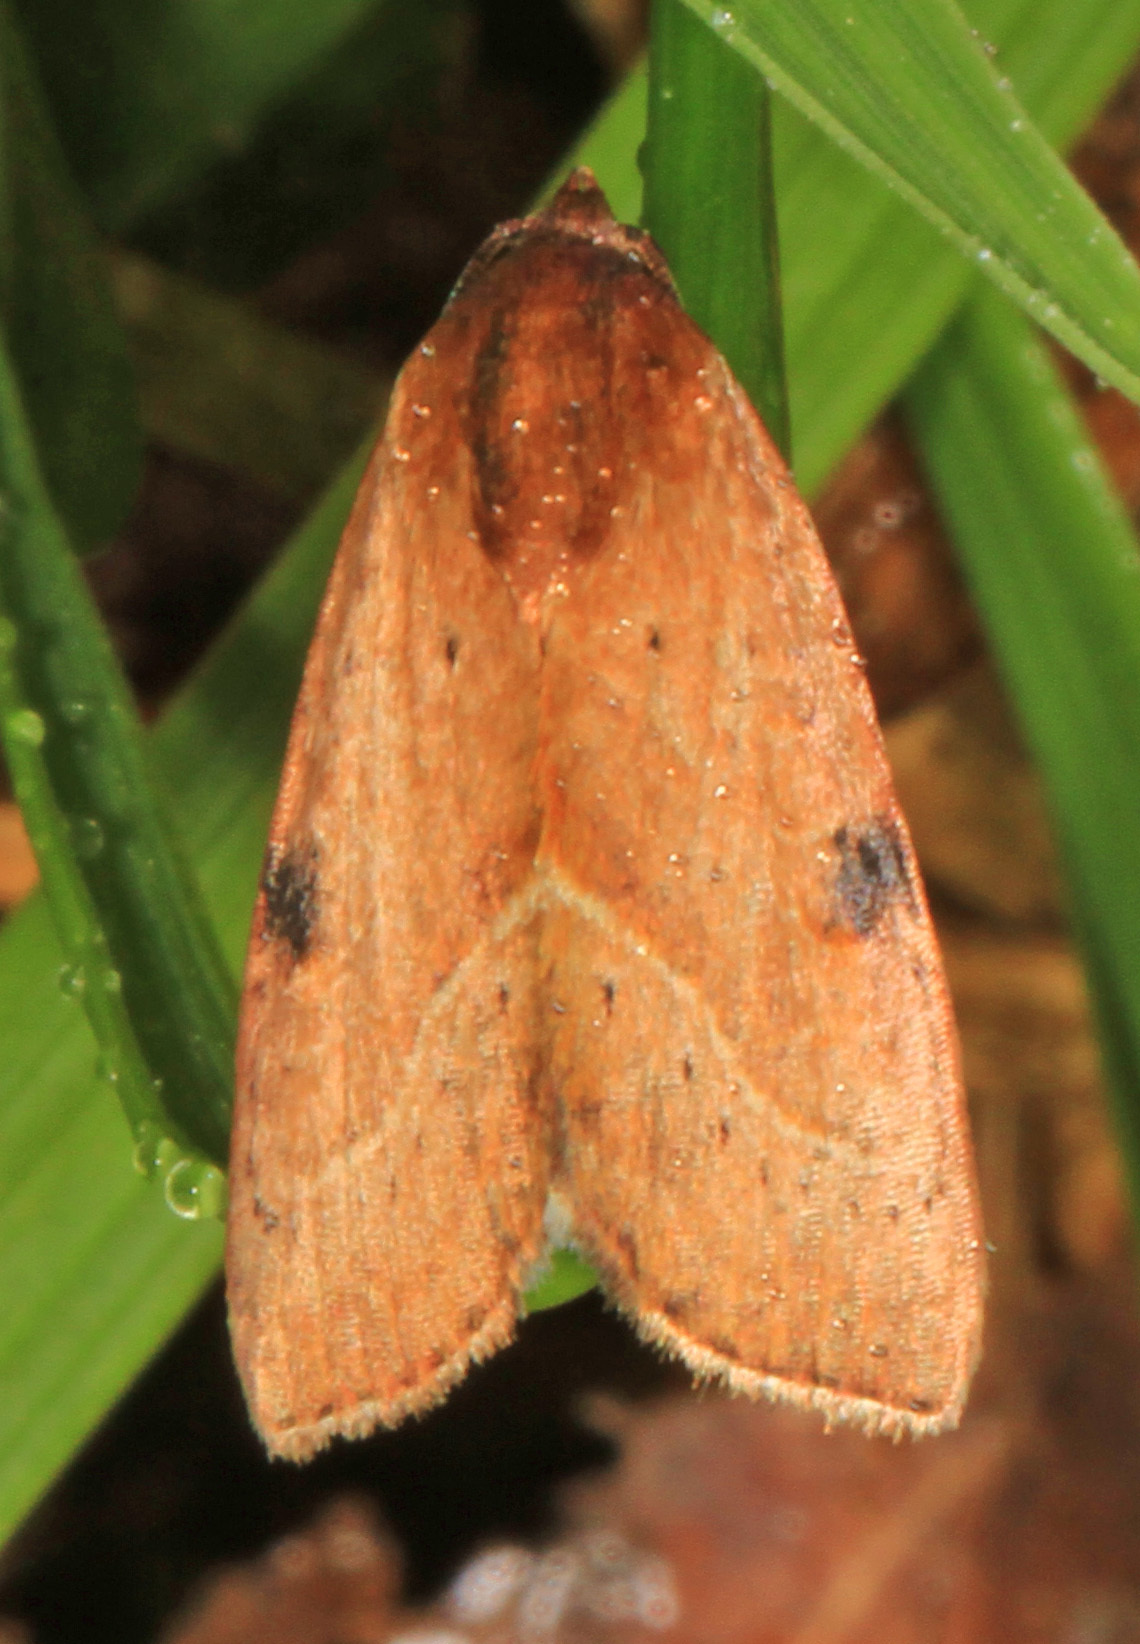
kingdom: Animalia
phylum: Arthropoda
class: Insecta
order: Lepidoptera
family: Noctuidae
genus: Galgula
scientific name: Galgula partita
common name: Wedgeling
